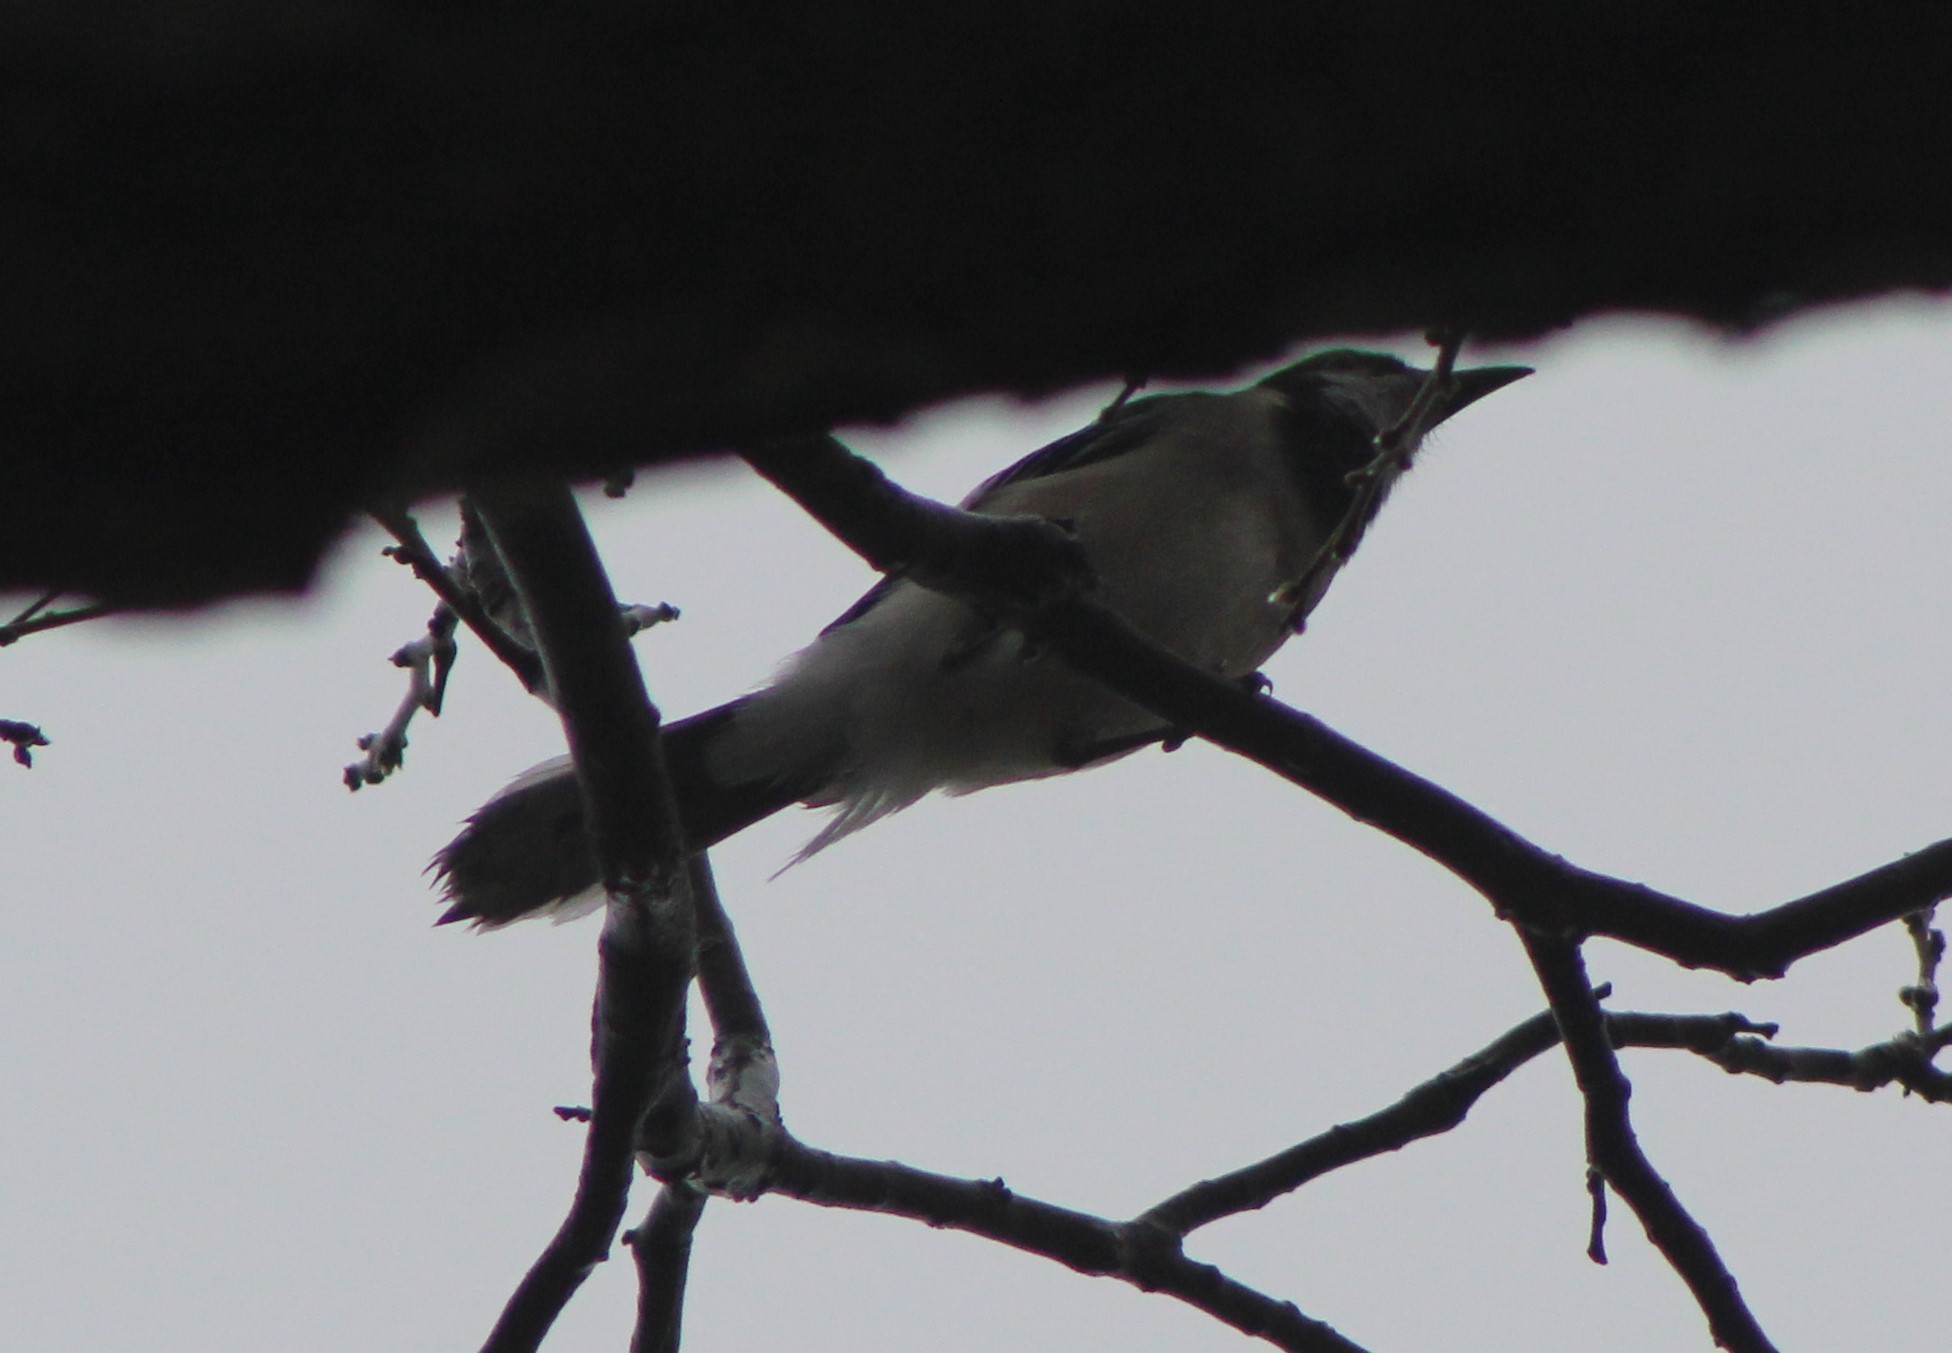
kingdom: Animalia
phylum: Chordata
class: Aves
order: Passeriformes
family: Corvidae
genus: Cyanocitta
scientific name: Cyanocitta cristata
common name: Blue jay
